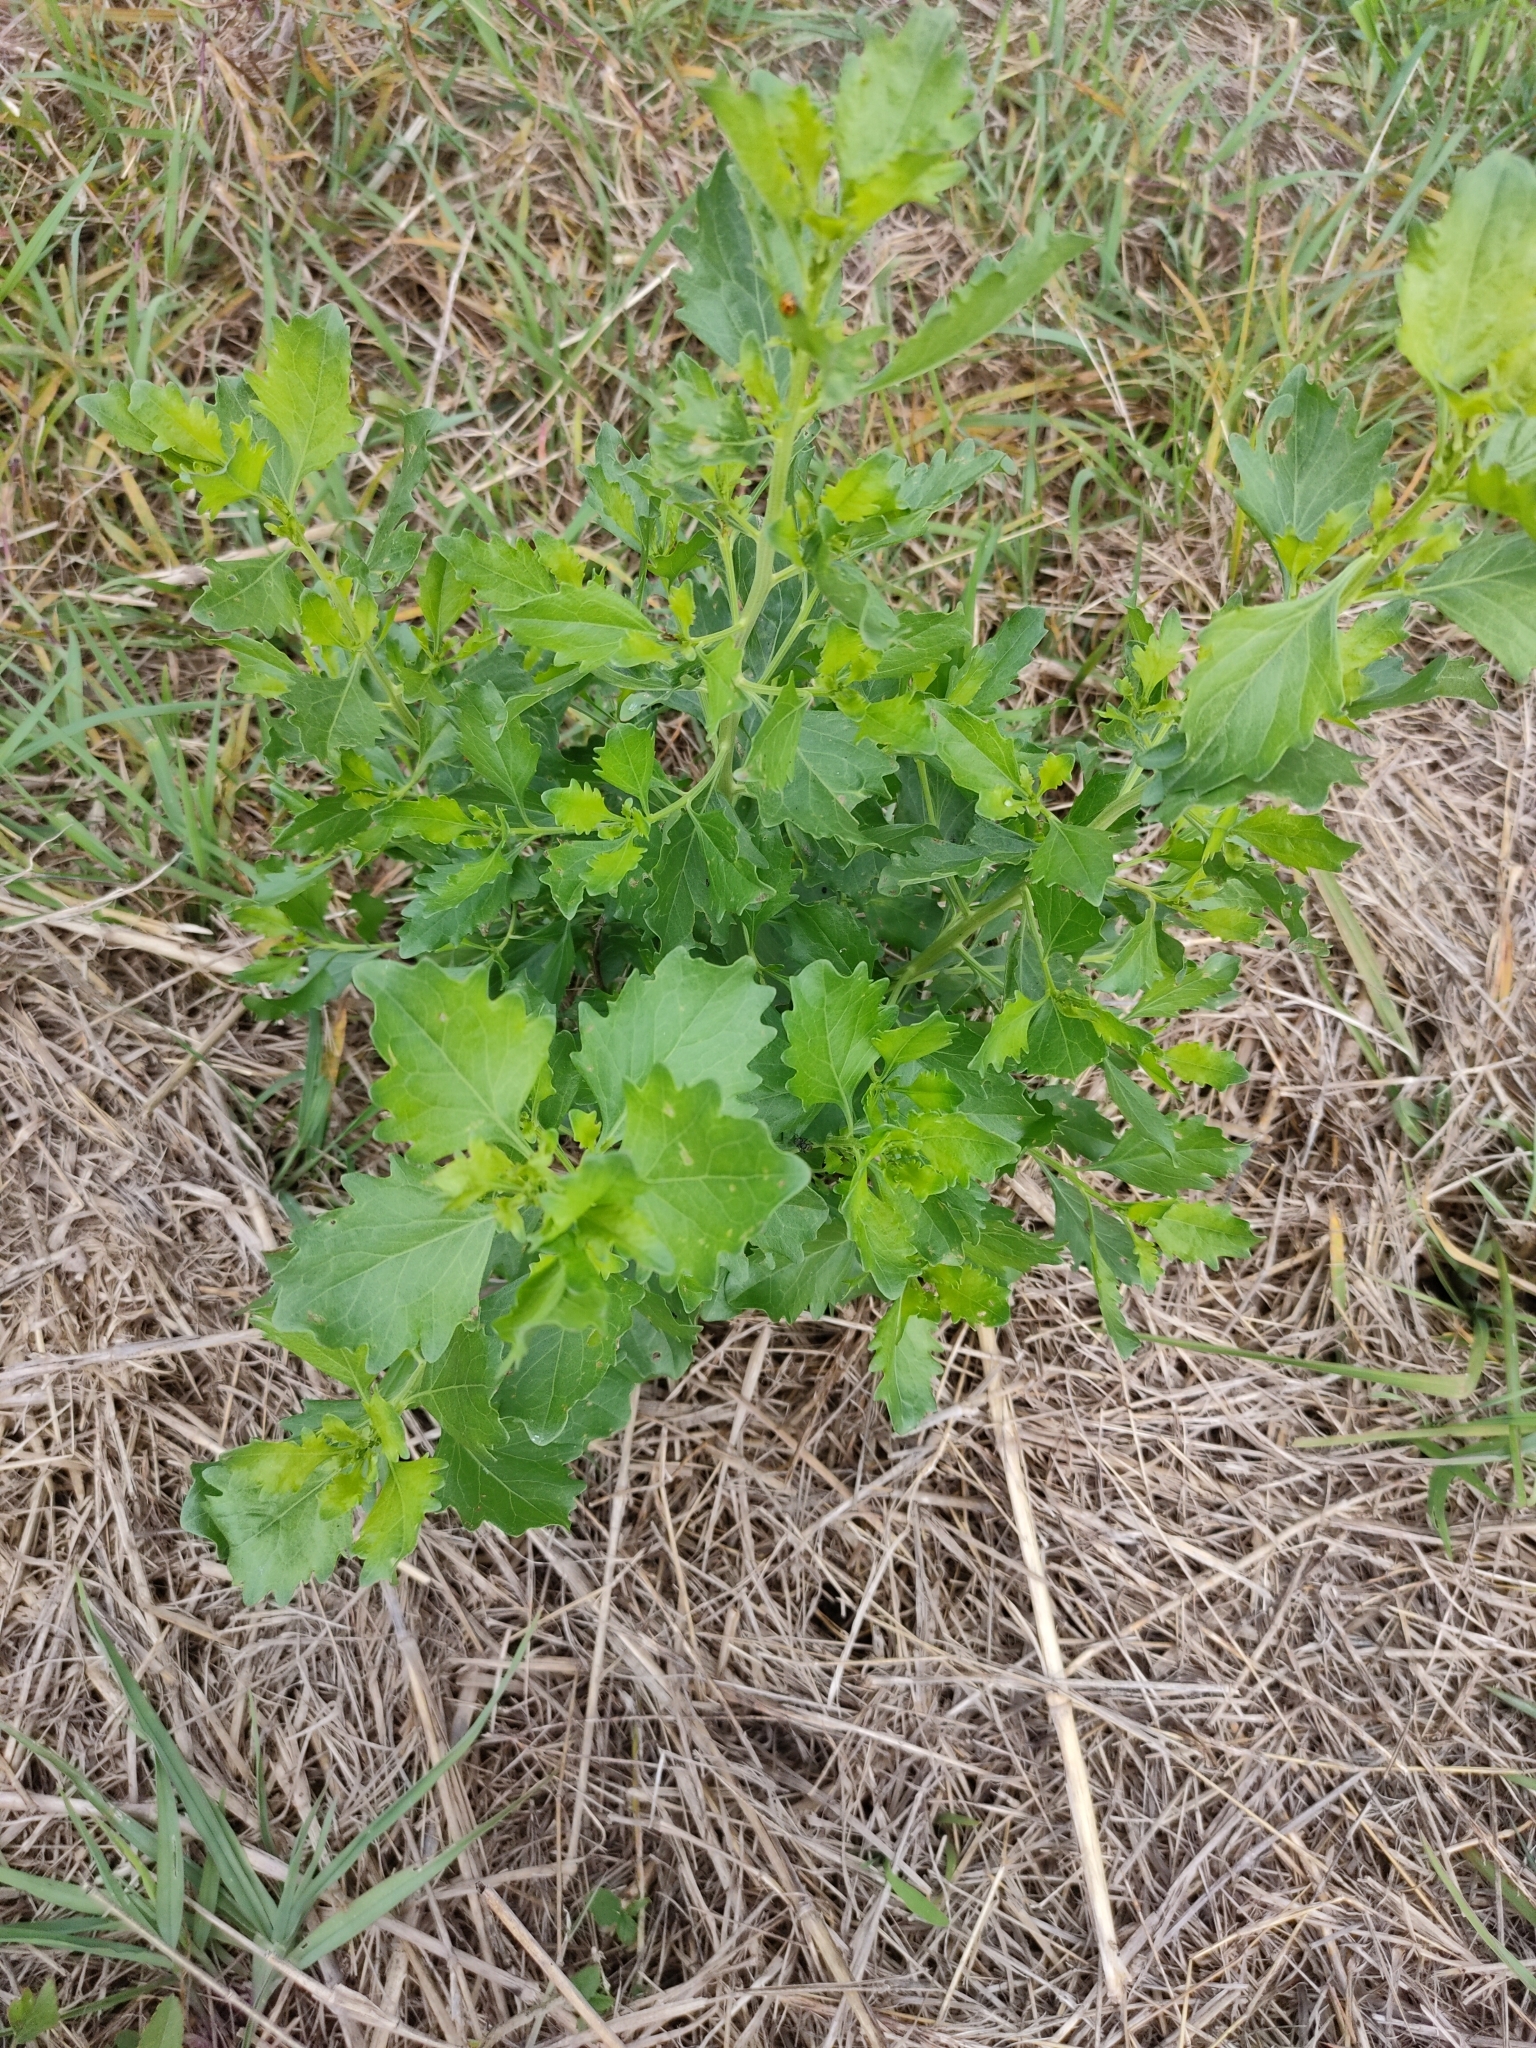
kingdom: Plantae
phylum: Tracheophyta
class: Magnoliopsida
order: Asterales
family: Asteraceae
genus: Baccharis
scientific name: Baccharis halimifolia
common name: Eastern baccharis
